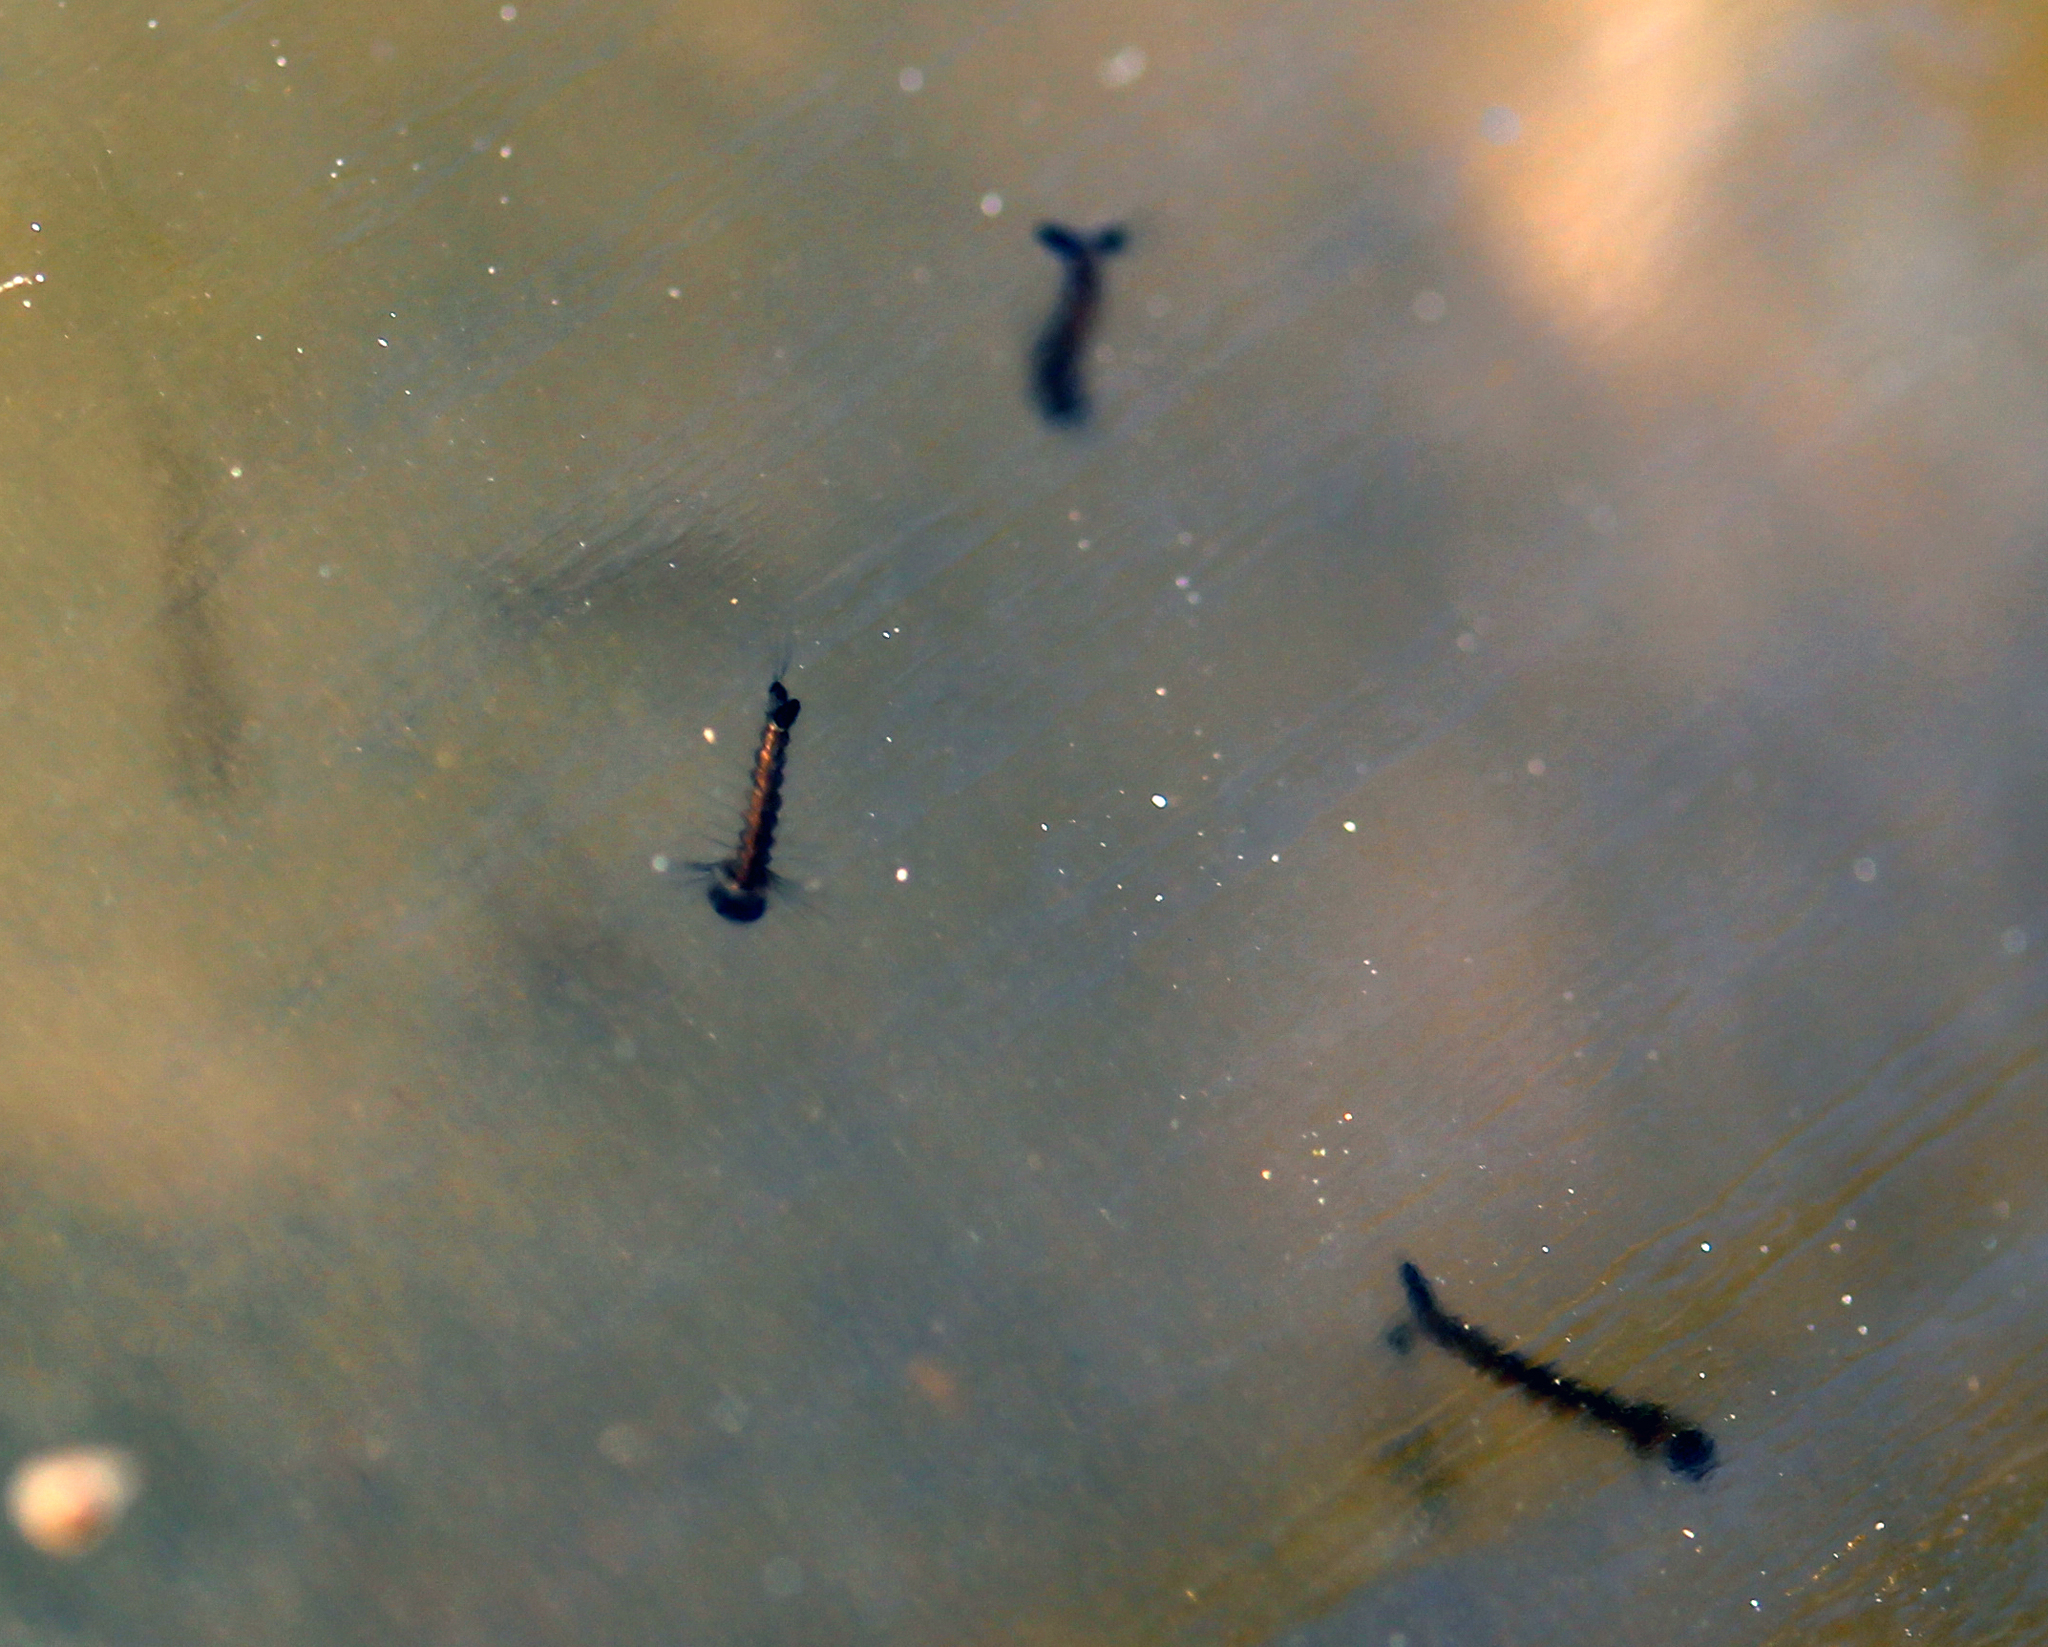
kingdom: Animalia
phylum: Arthropoda
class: Insecta
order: Diptera
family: Culicidae
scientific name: Culicidae
